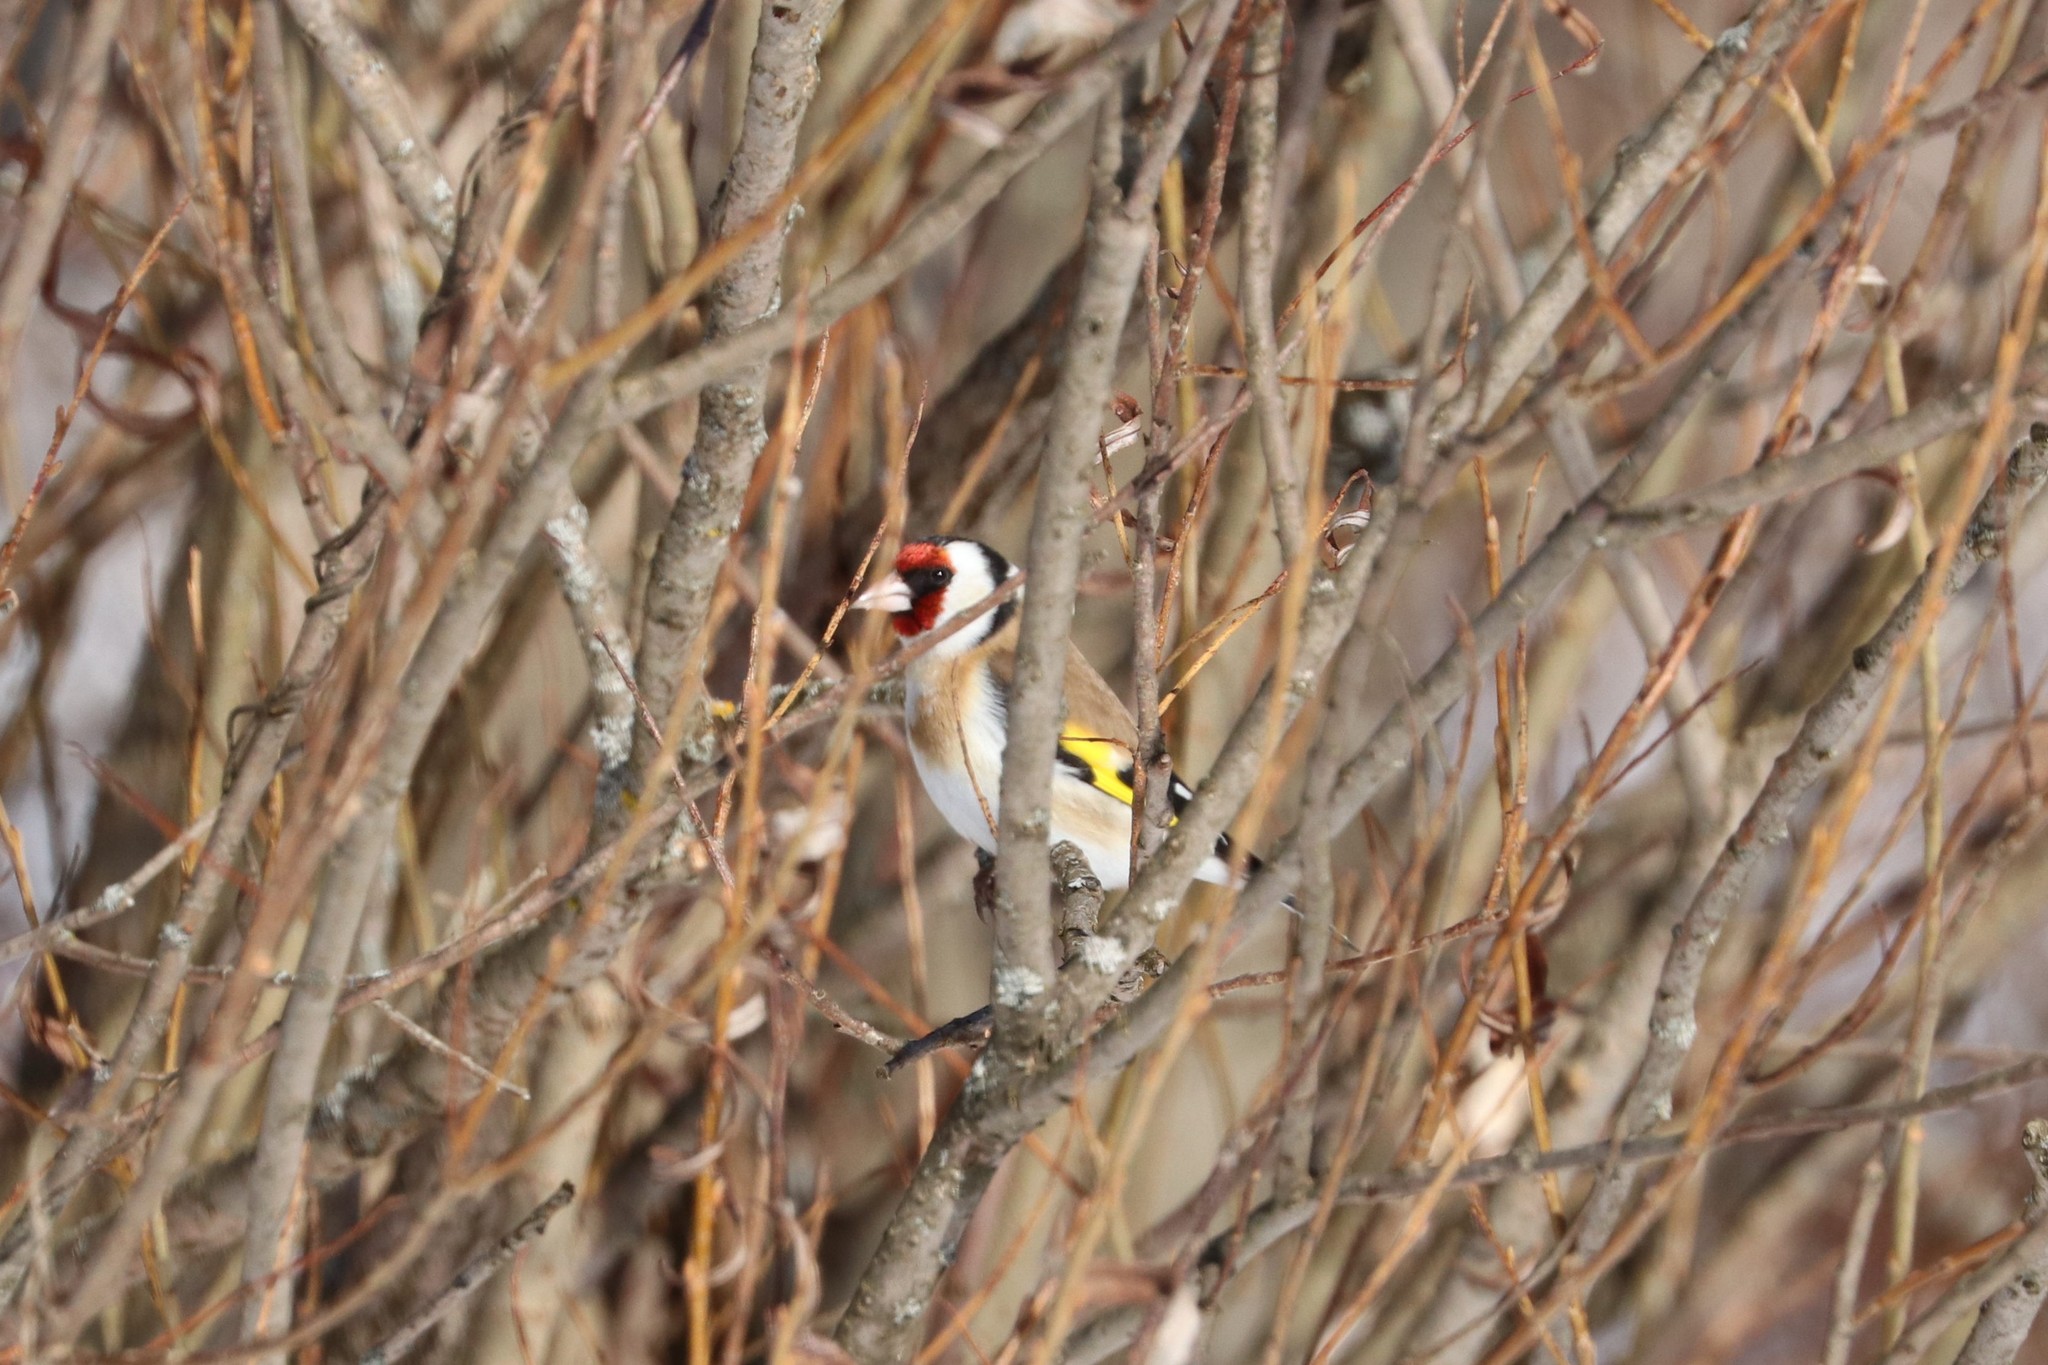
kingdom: Animalia
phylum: Chordata
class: Aves
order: Passeriformes
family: Fringillidae
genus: Carduelis
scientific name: Carduelis carduelis
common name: European goldfinch
